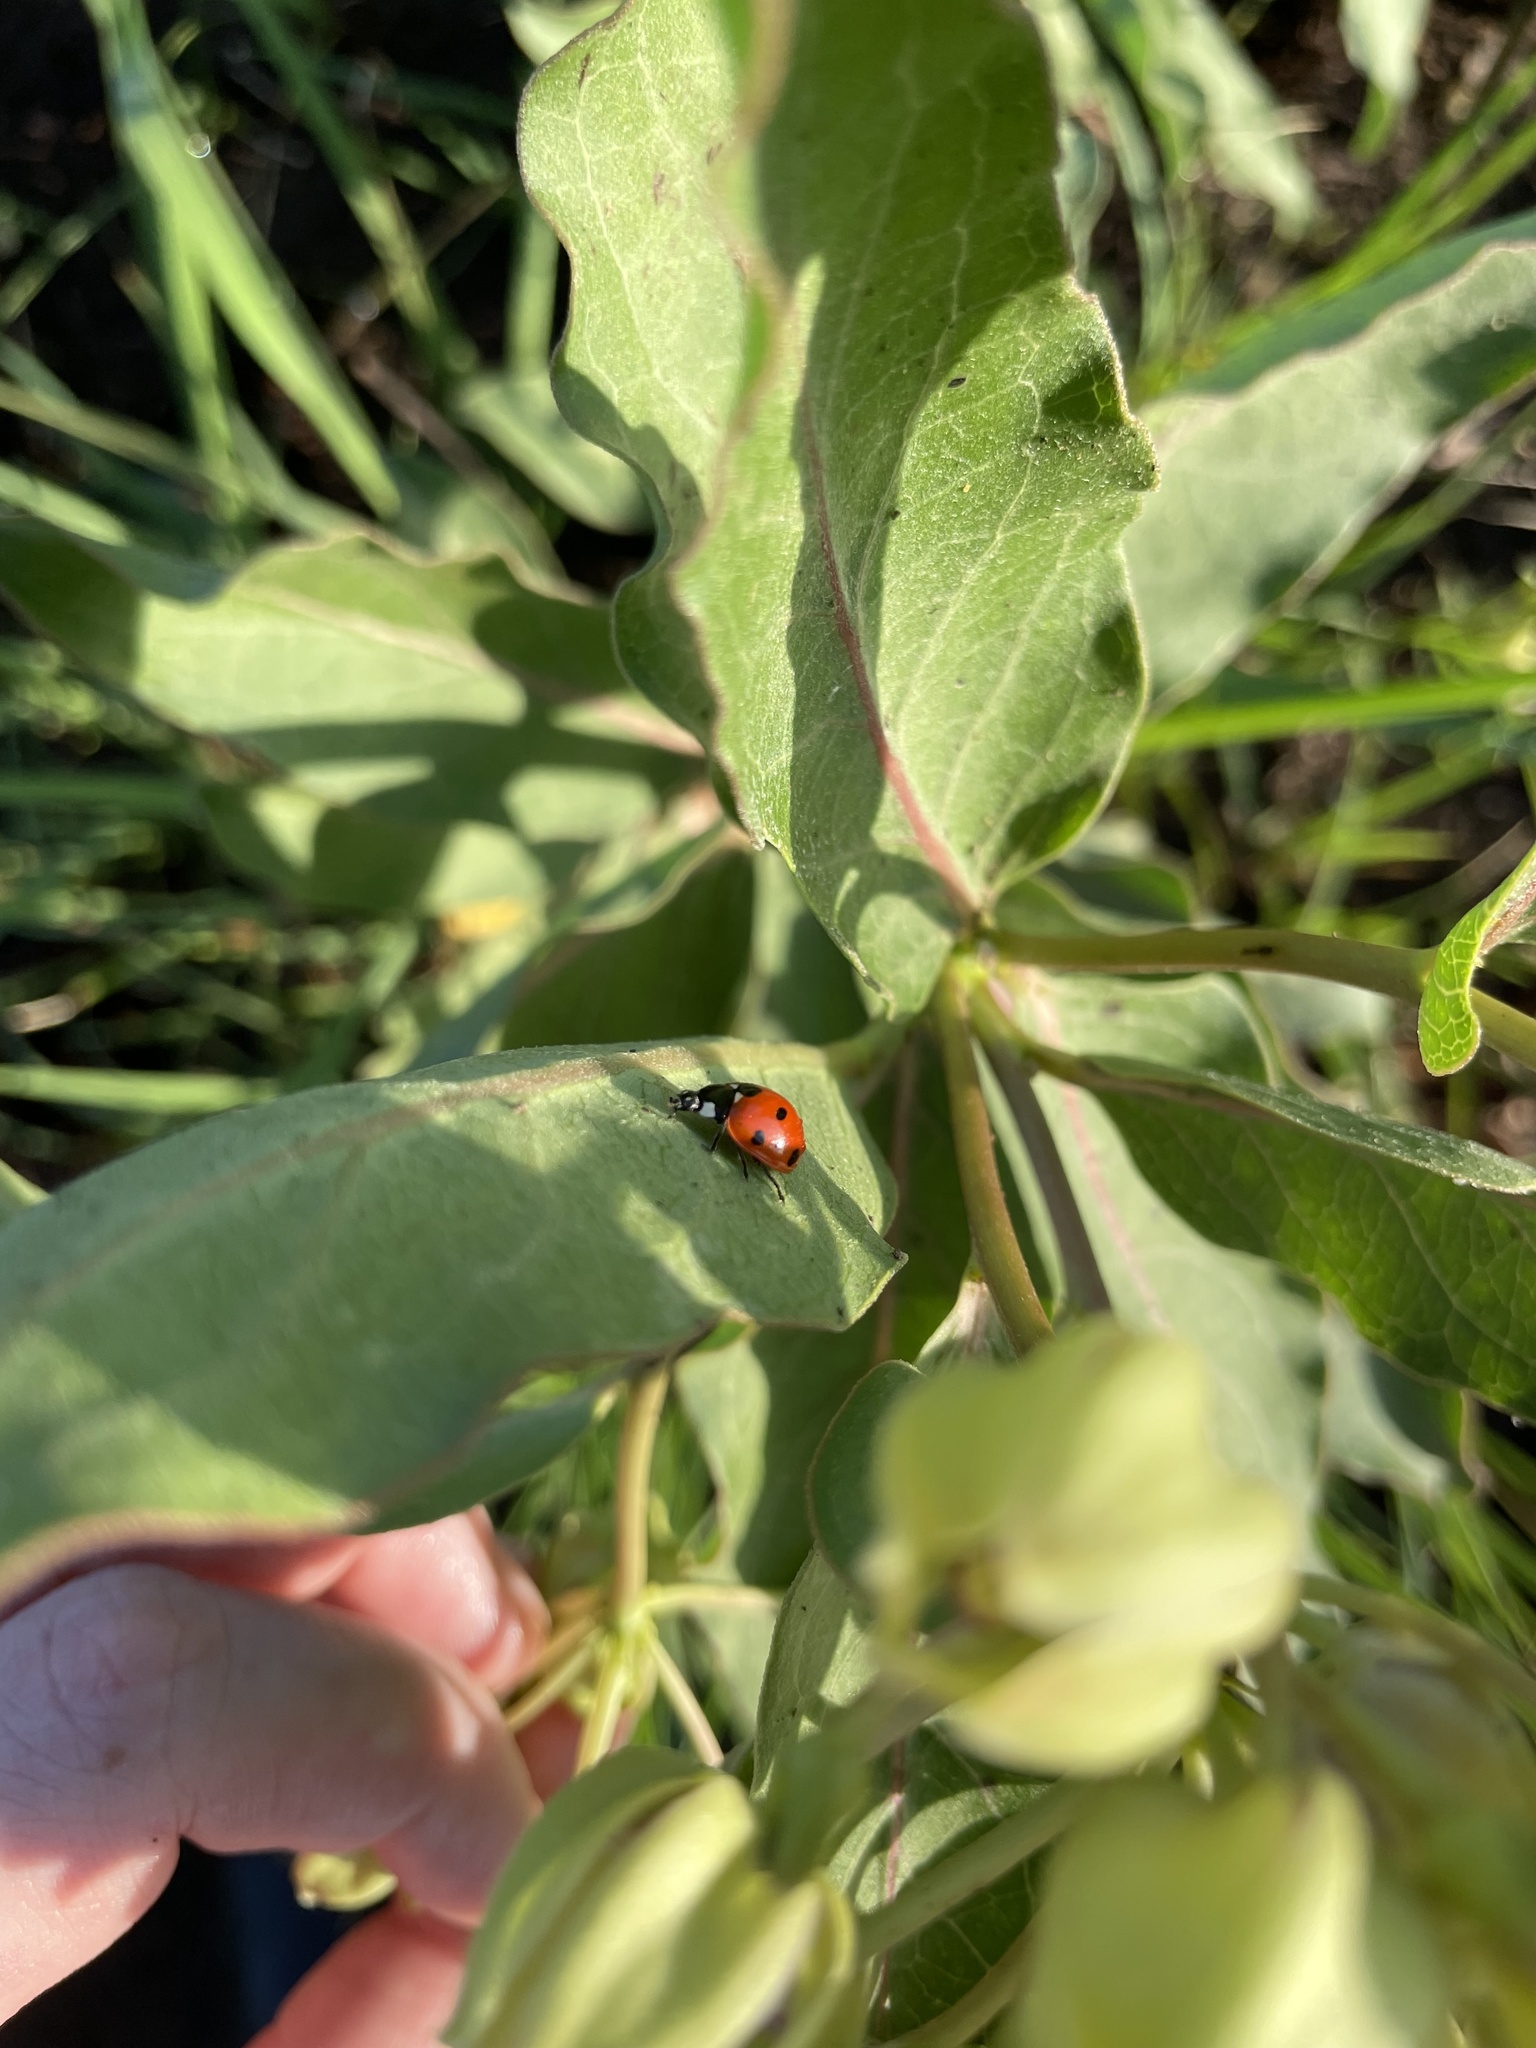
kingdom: Animalia
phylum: Arthropoda
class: Insecta
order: Coleoptera
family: Coccinellidae
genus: Coccinella
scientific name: Coccinella septempunctata
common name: Sevenspotted lady beetle
